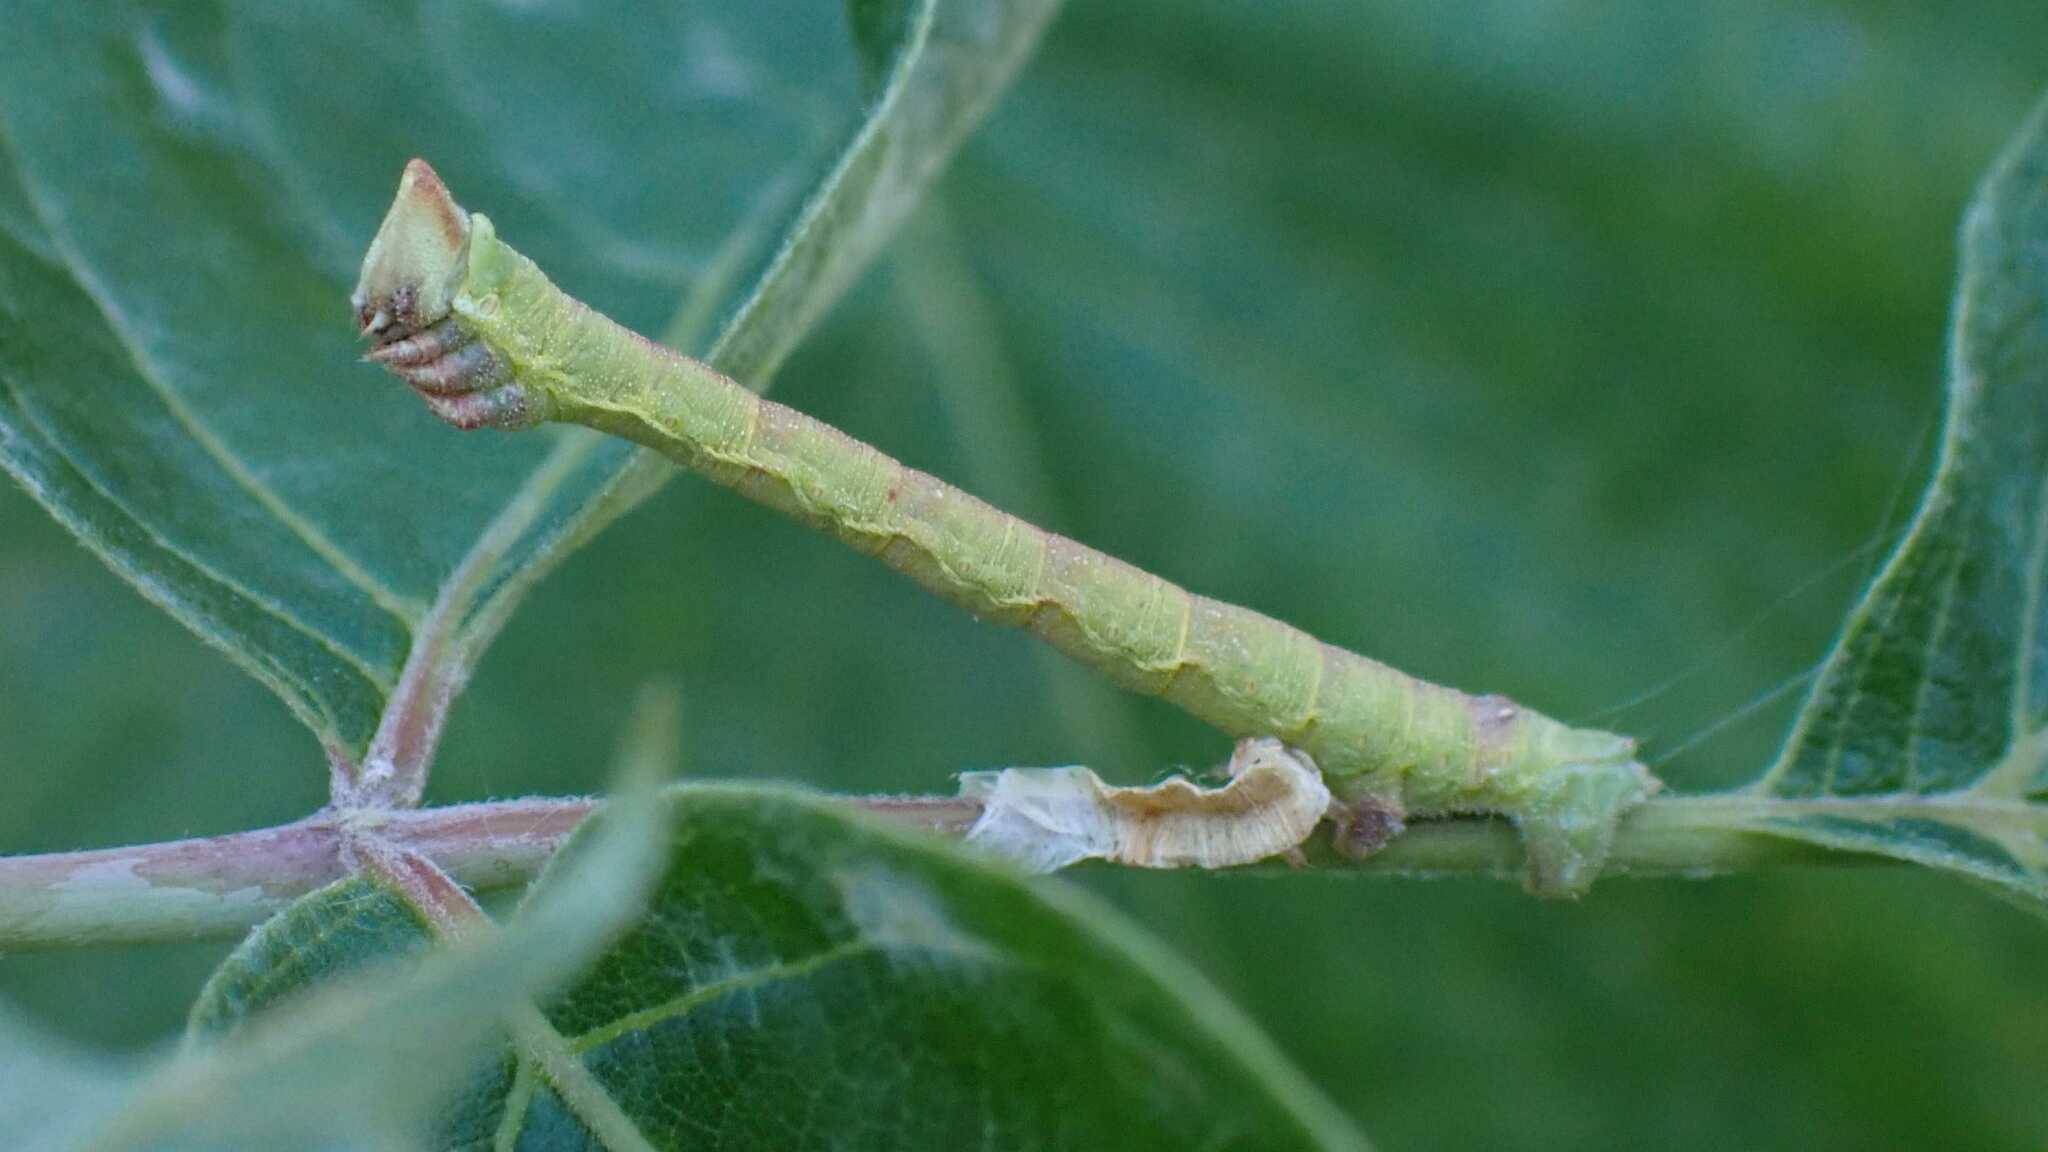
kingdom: Animalia
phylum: Arthropoda
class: Insecta
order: Lepidoptera
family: Geometridae
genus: Biston
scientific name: Biston betularia
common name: Peppered moth
